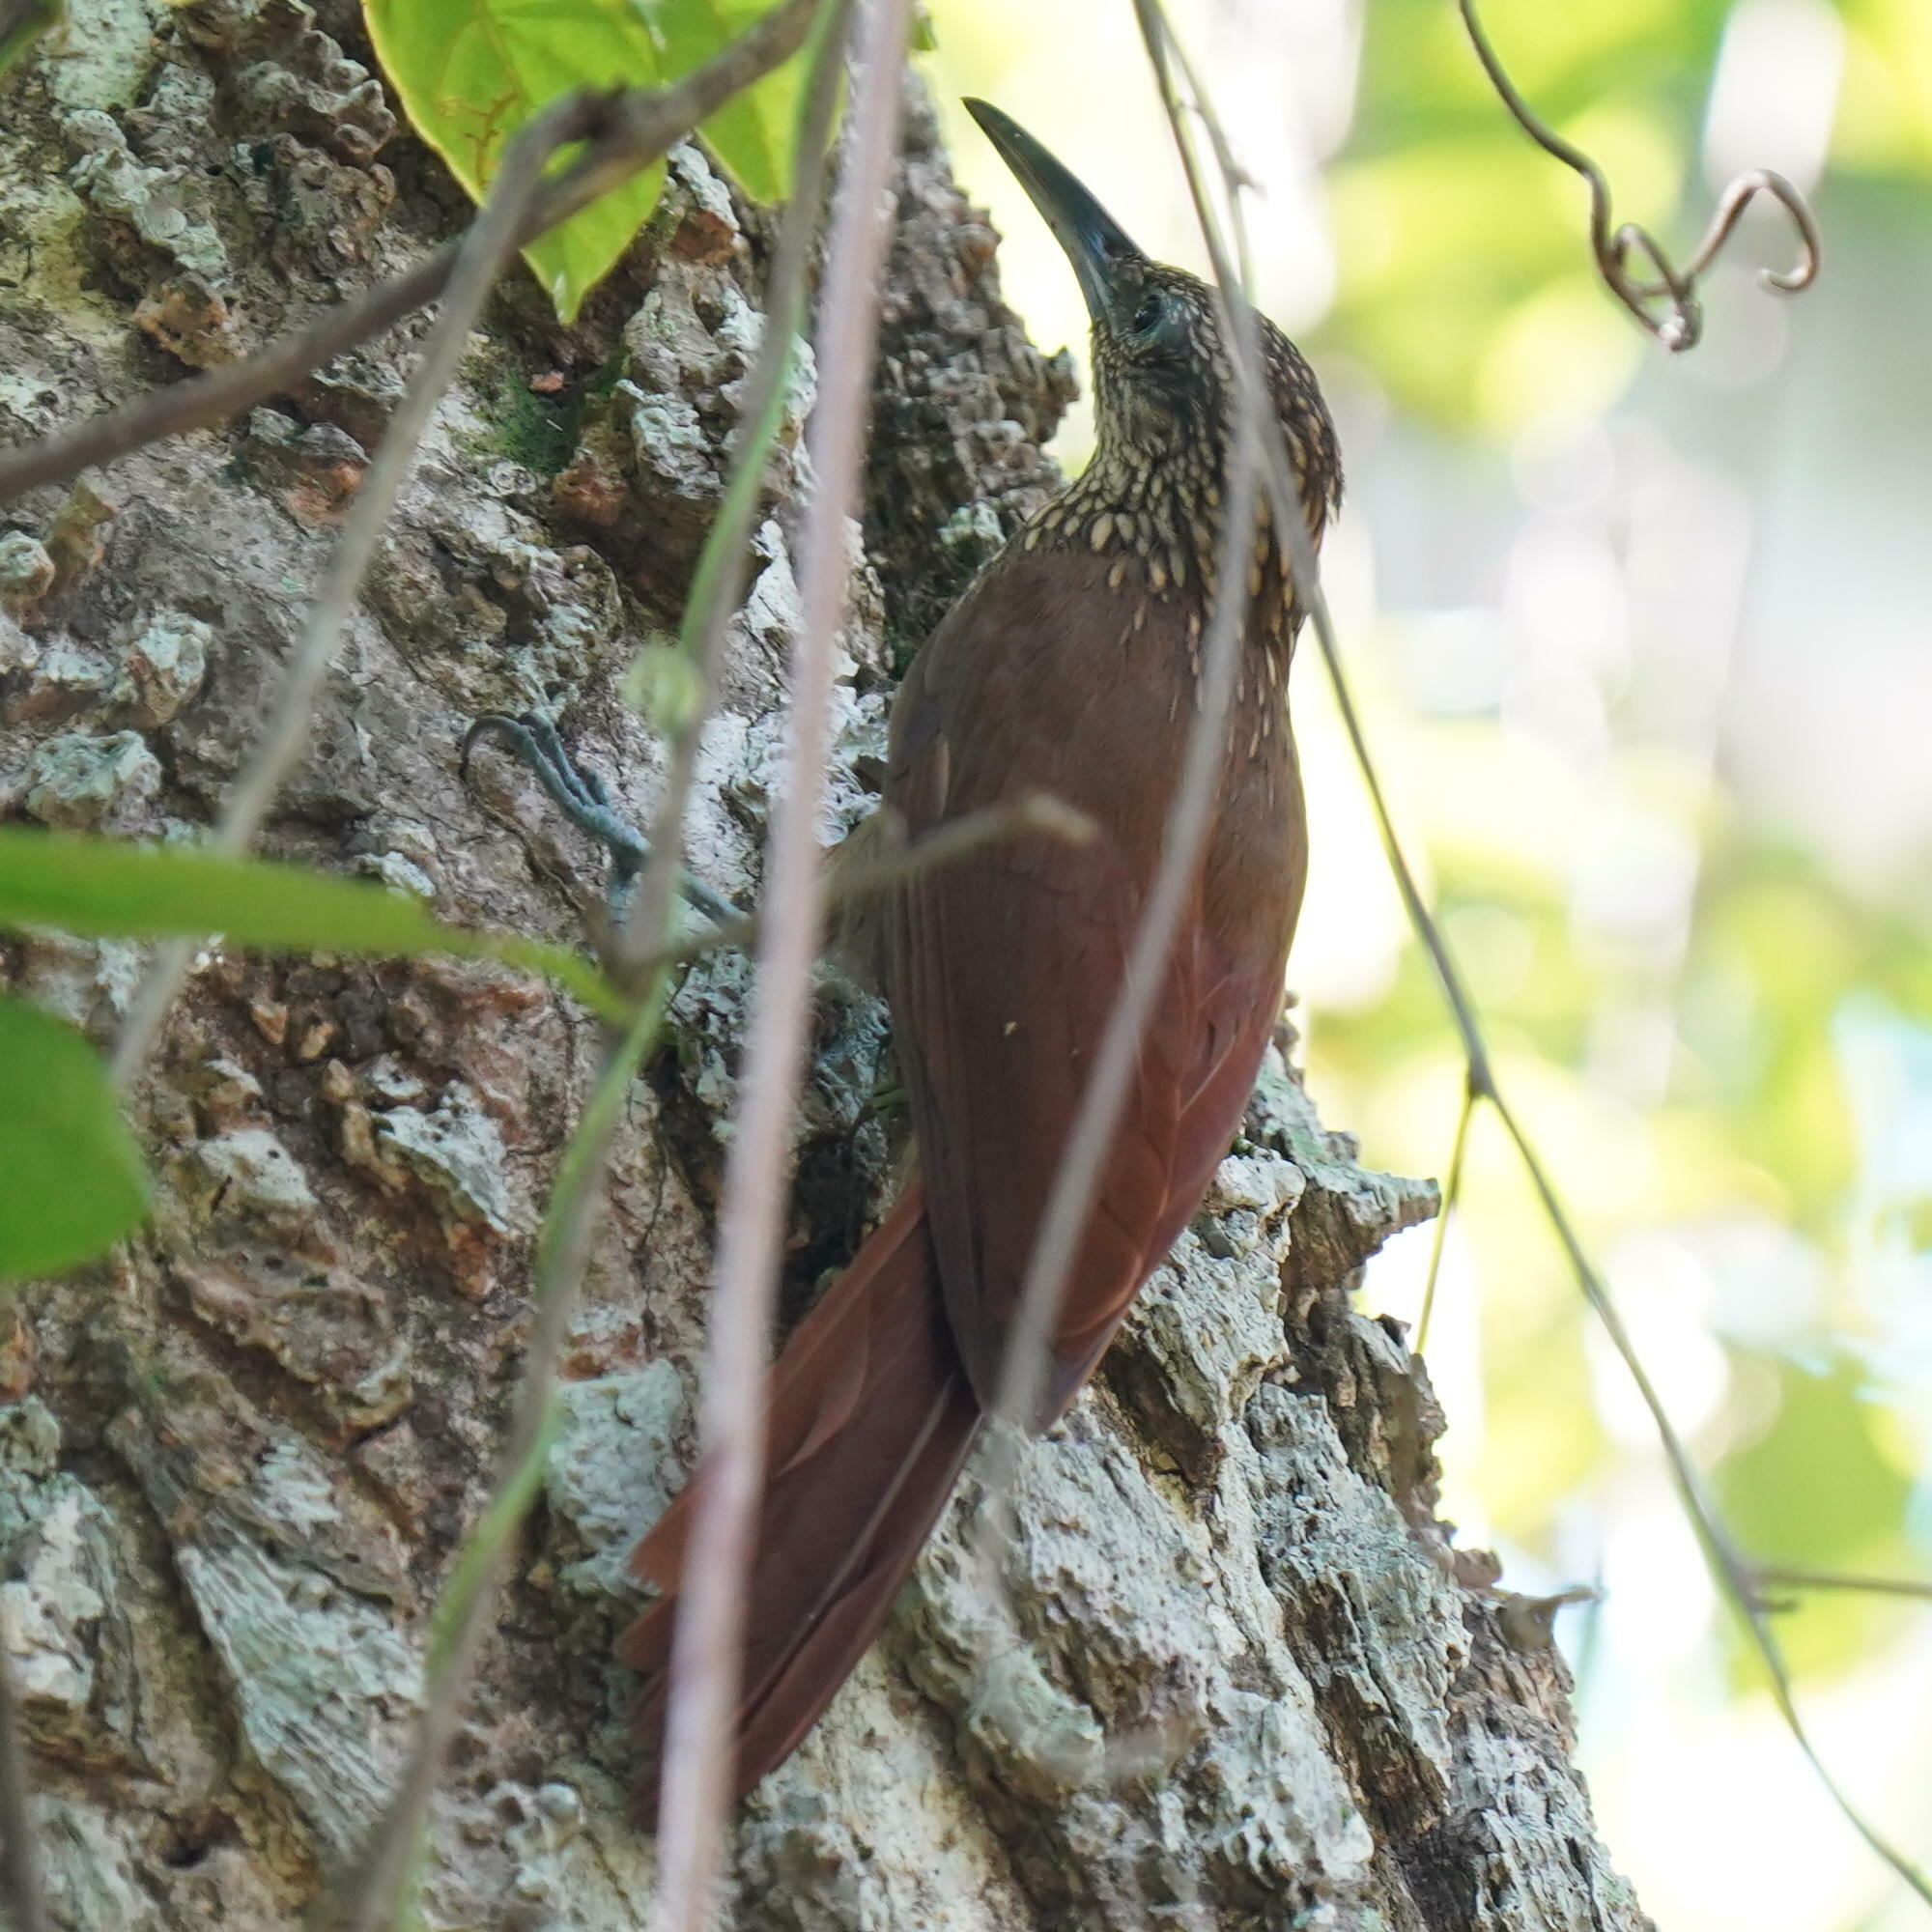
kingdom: Animalia
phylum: Chordata
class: Aves
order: Passeriformes
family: Furnariidae
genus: Xiphorhynchus
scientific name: Xiphorhynchus susurrans
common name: Cocoa woodcreeper
